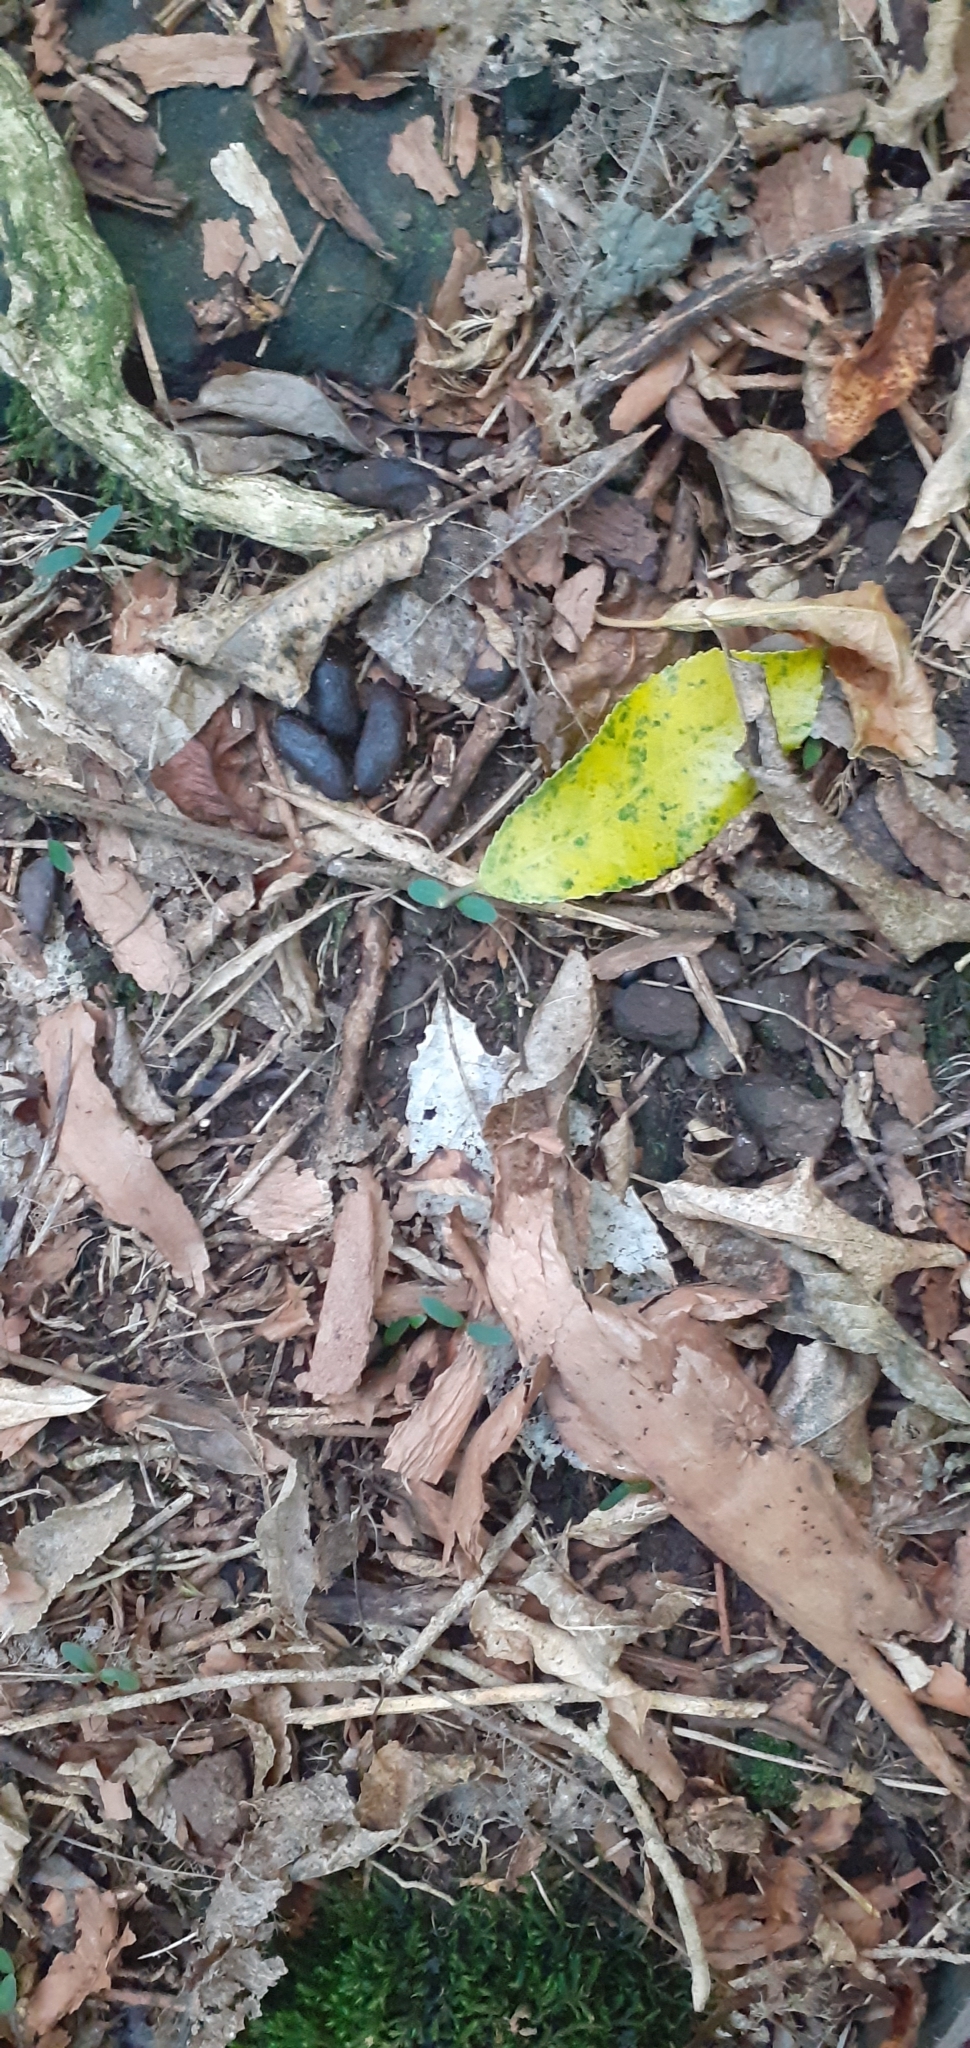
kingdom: Animalia
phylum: Chordata
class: Mammalia
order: Diprotodontia
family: Phalangeridae
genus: Trichosurus
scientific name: Trichosurus vulpecula
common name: Common brushtail
